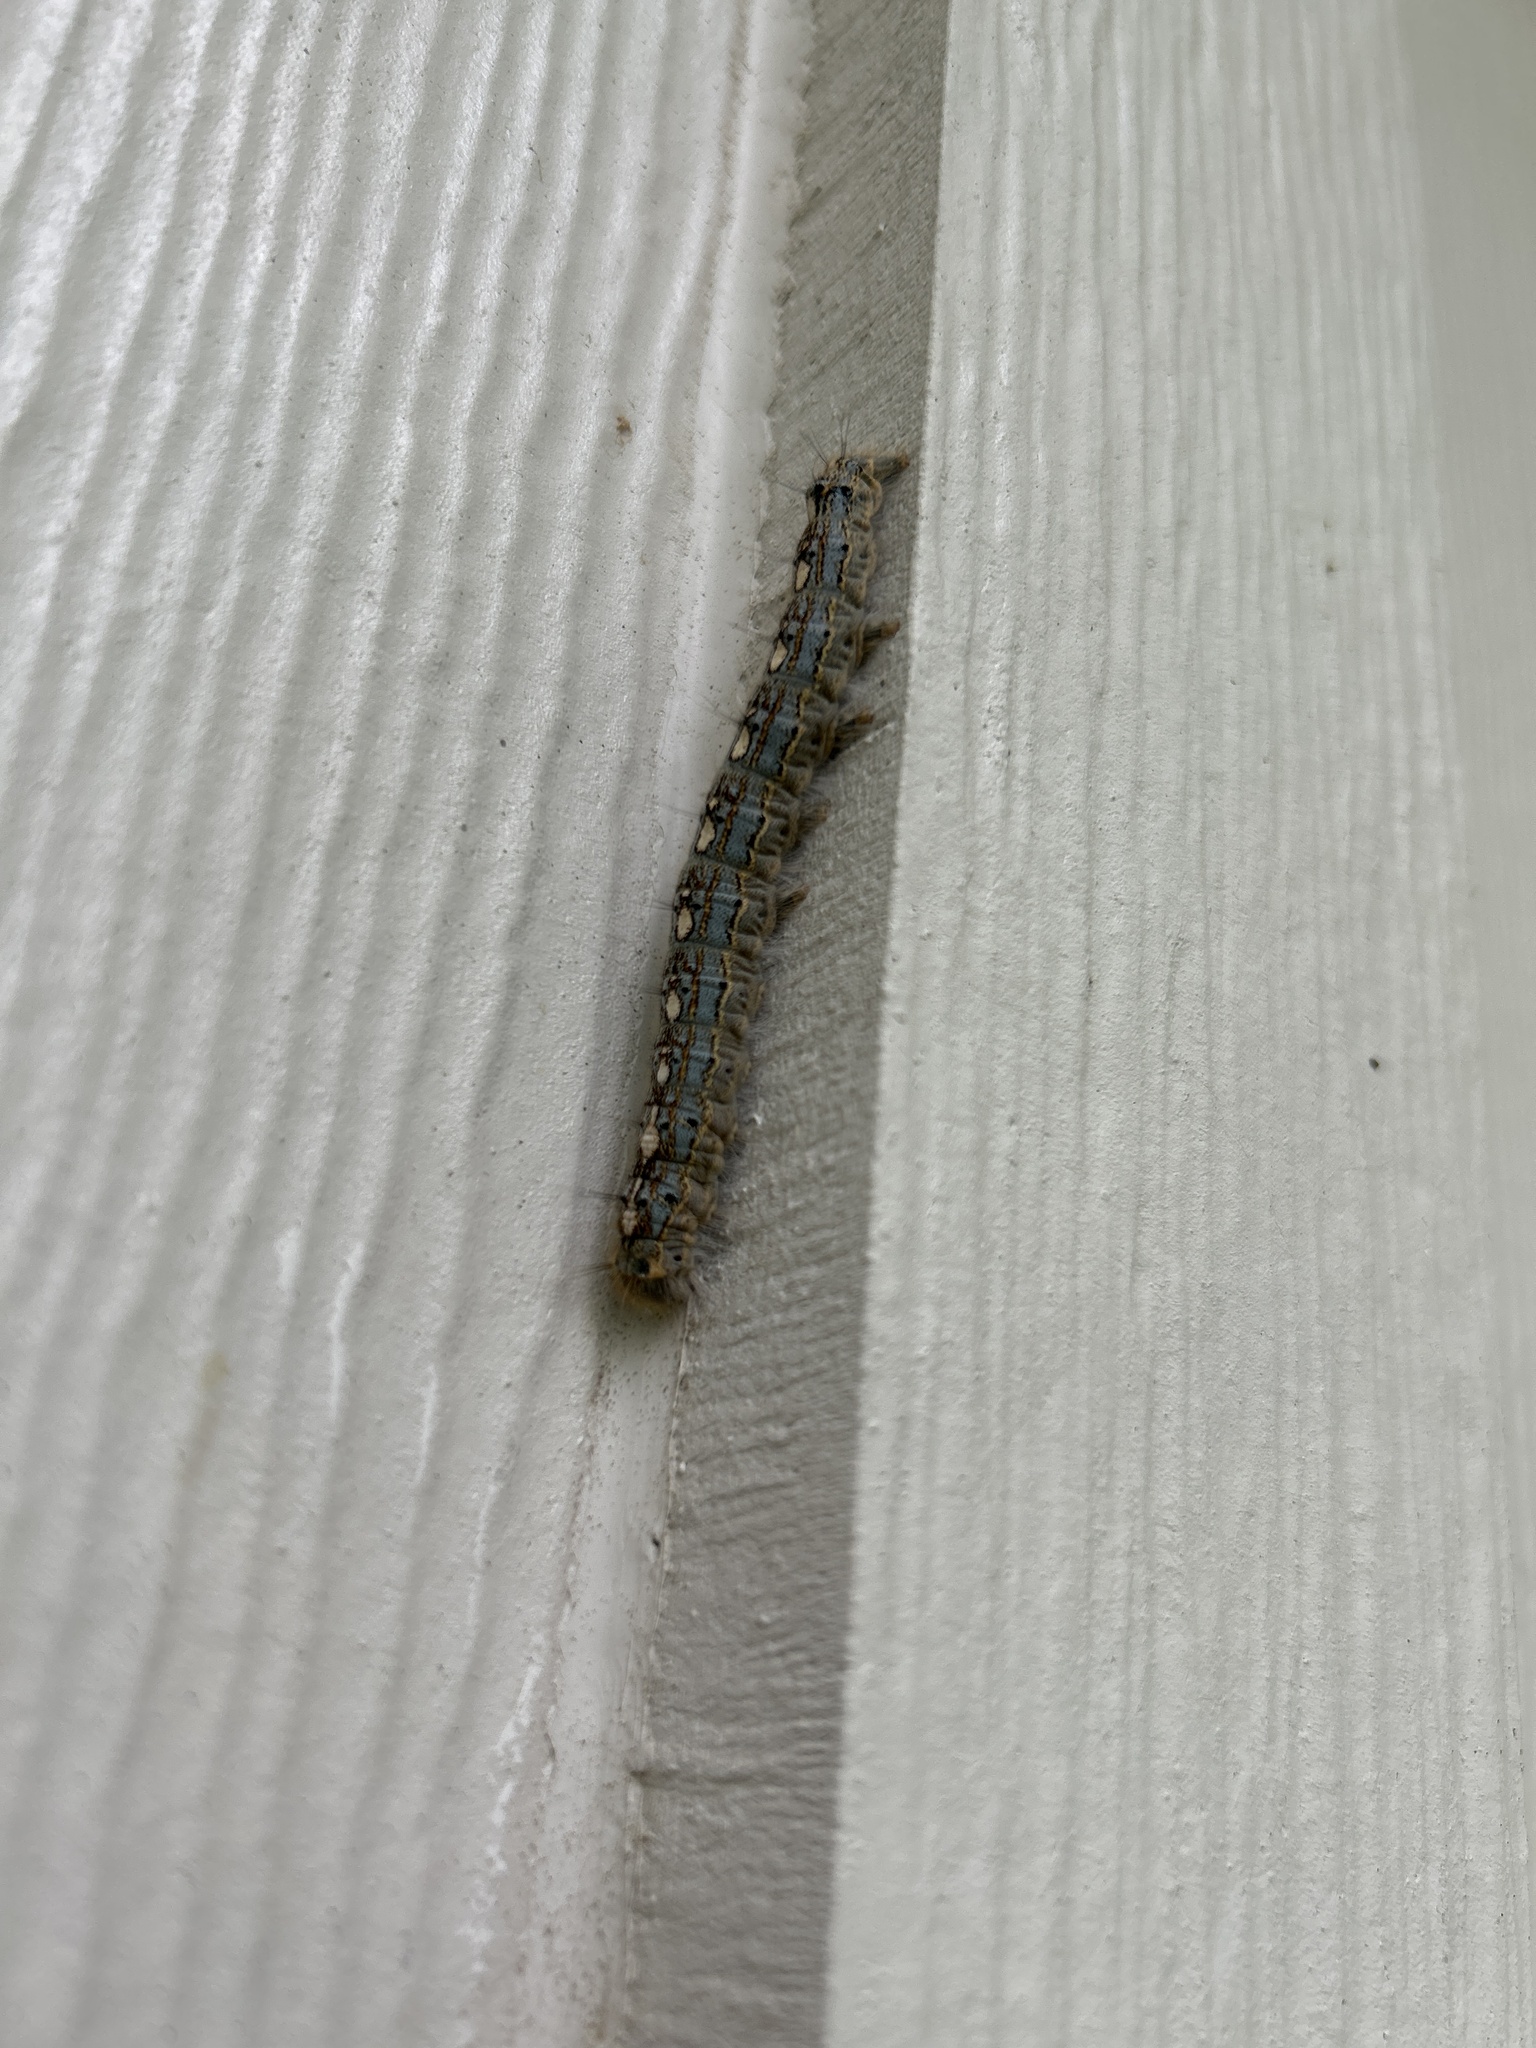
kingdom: Animalia
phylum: Arthropoda
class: Insecta
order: Lepidoptera
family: Lasiocampidae
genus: Malacosoma
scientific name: Malacosoma disstria
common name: Forest tent caterpillar
